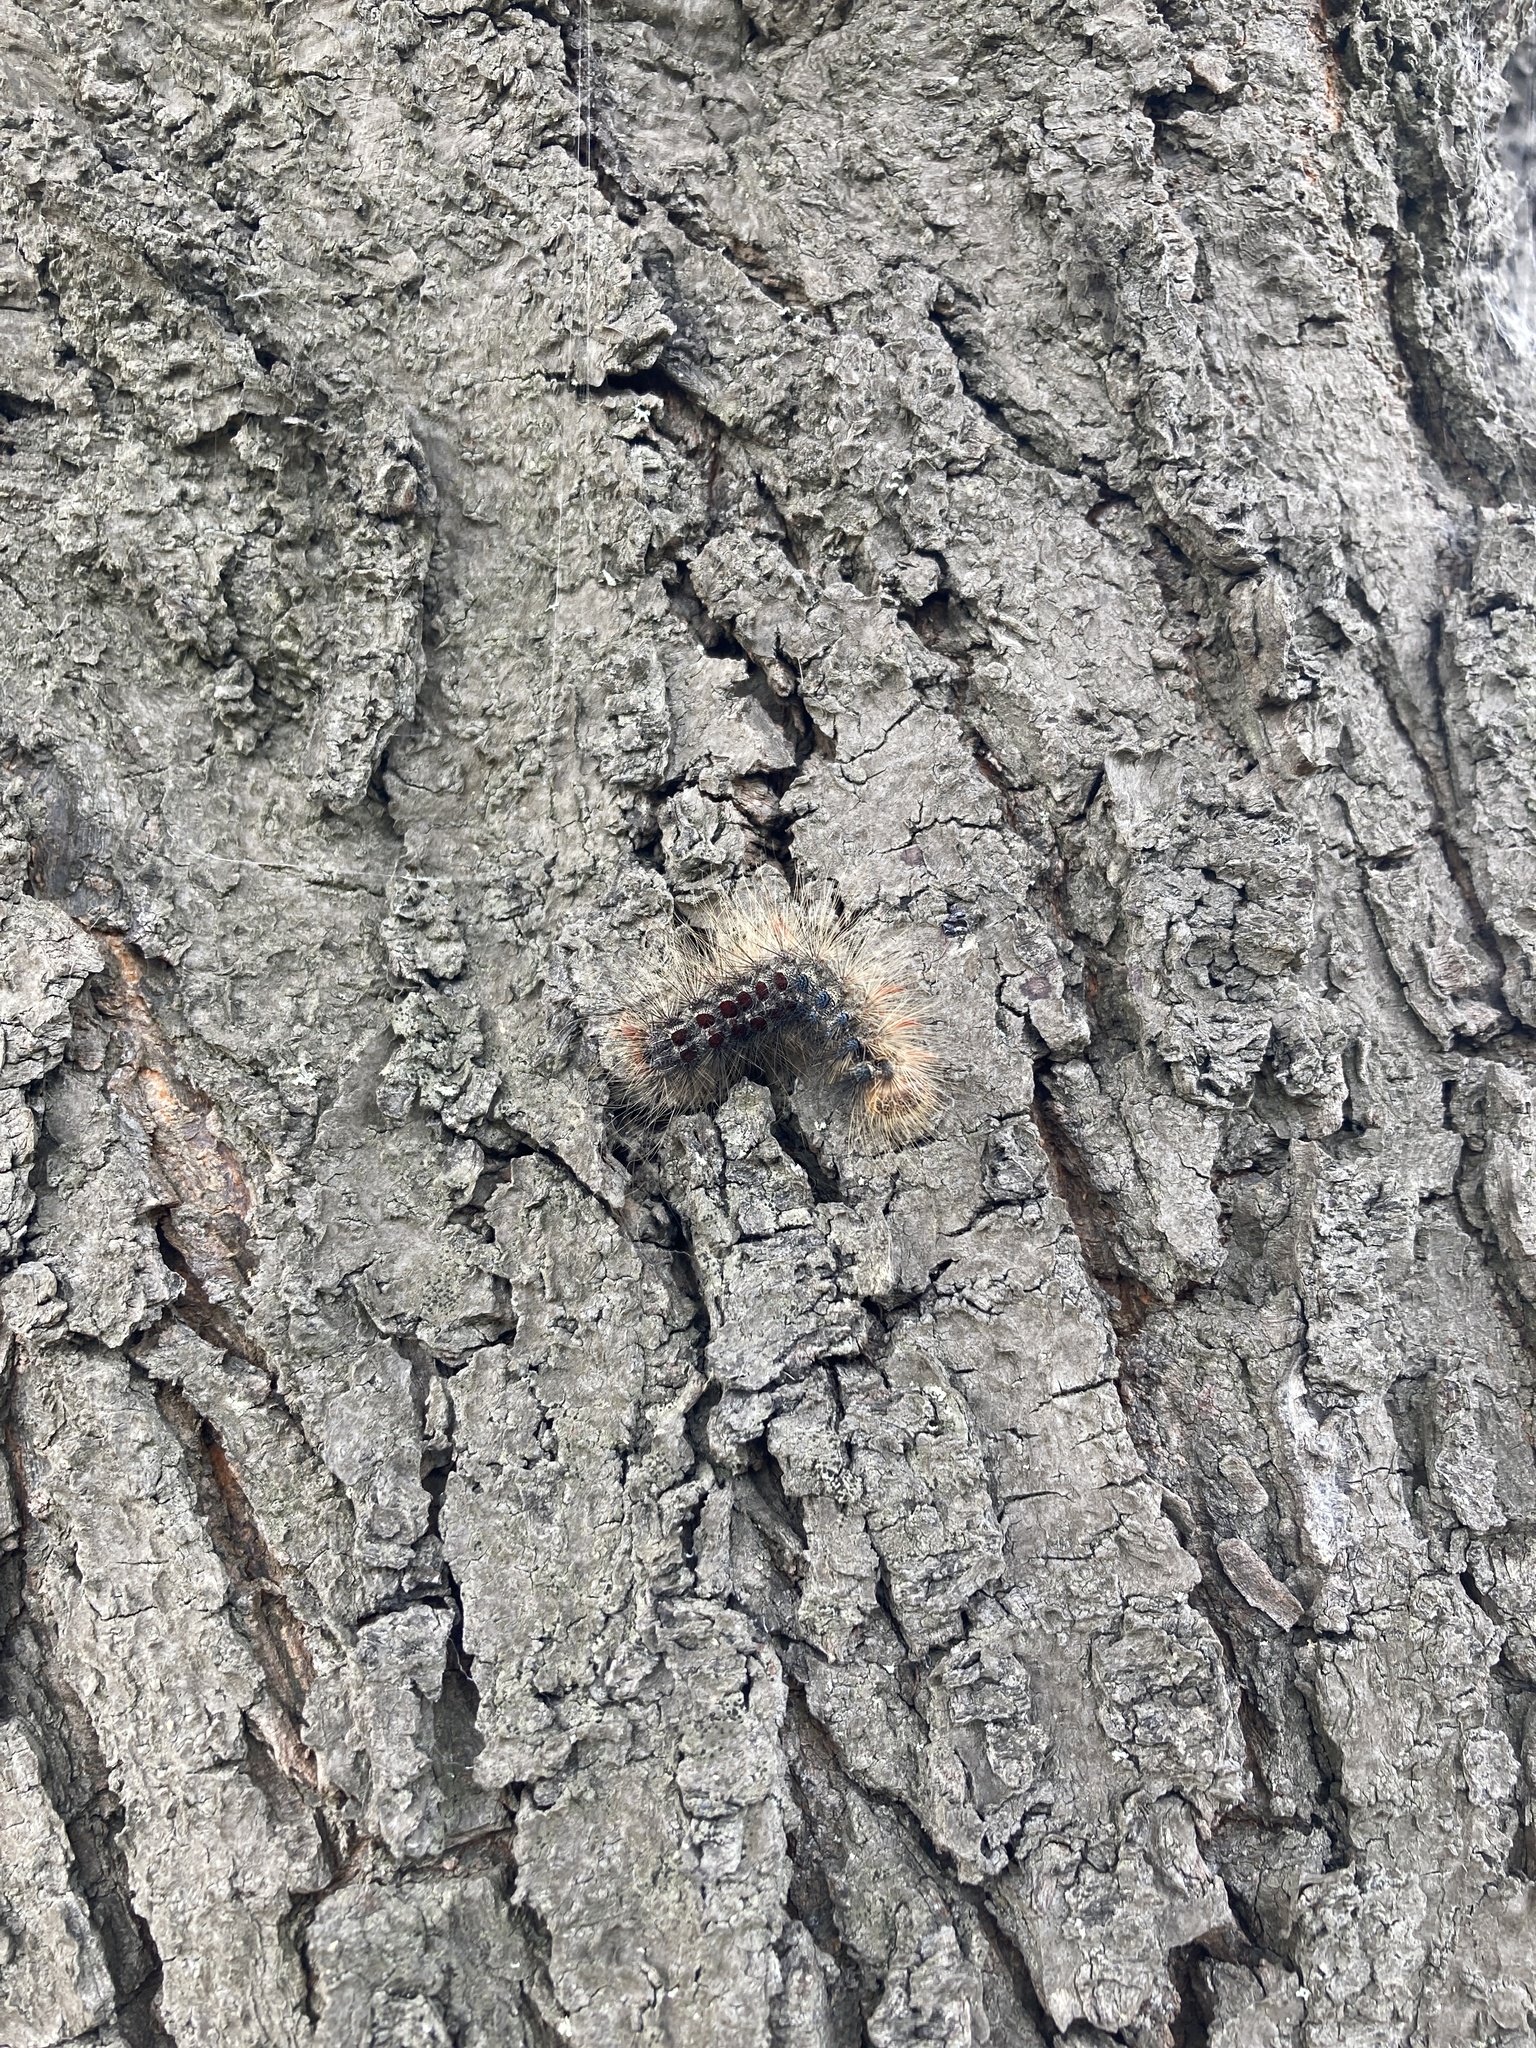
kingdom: Animalia
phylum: Arthropoda
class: Insecta
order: Lepidoptera
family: Erebidae
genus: Lymantria
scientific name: Lymantria dispar
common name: Gypsy moth
